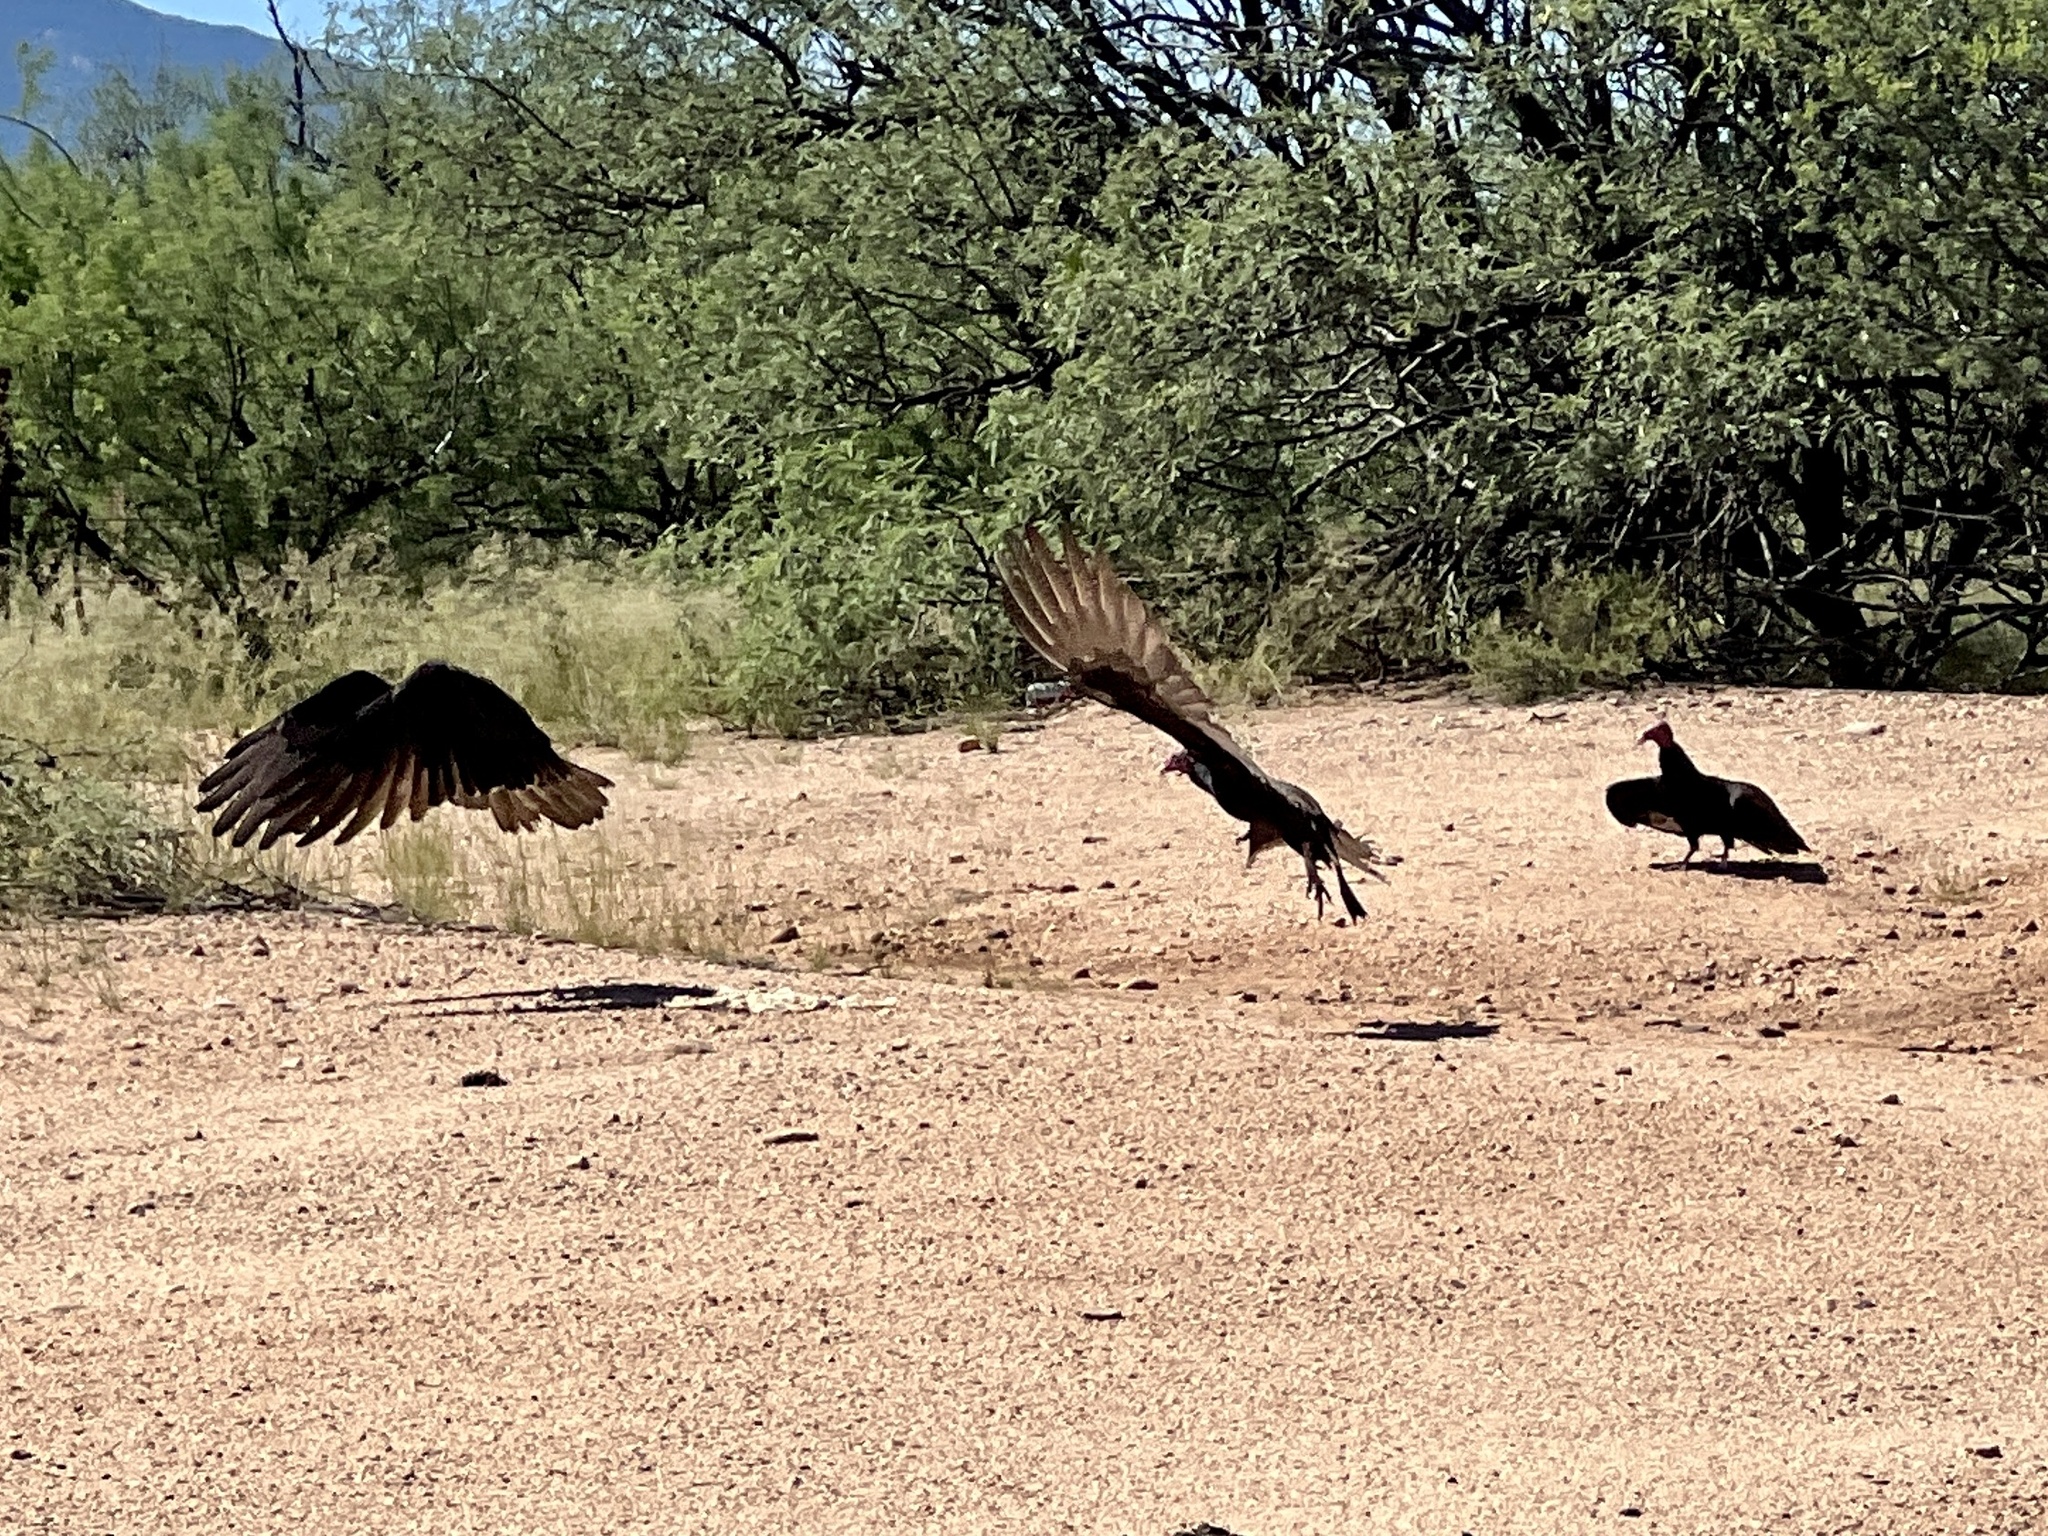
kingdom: Animalia
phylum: Chordata
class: Aves
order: Accipitriformes
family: Cathartidae
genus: Cathartes
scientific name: Cathartes aura
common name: Turkey vulture
